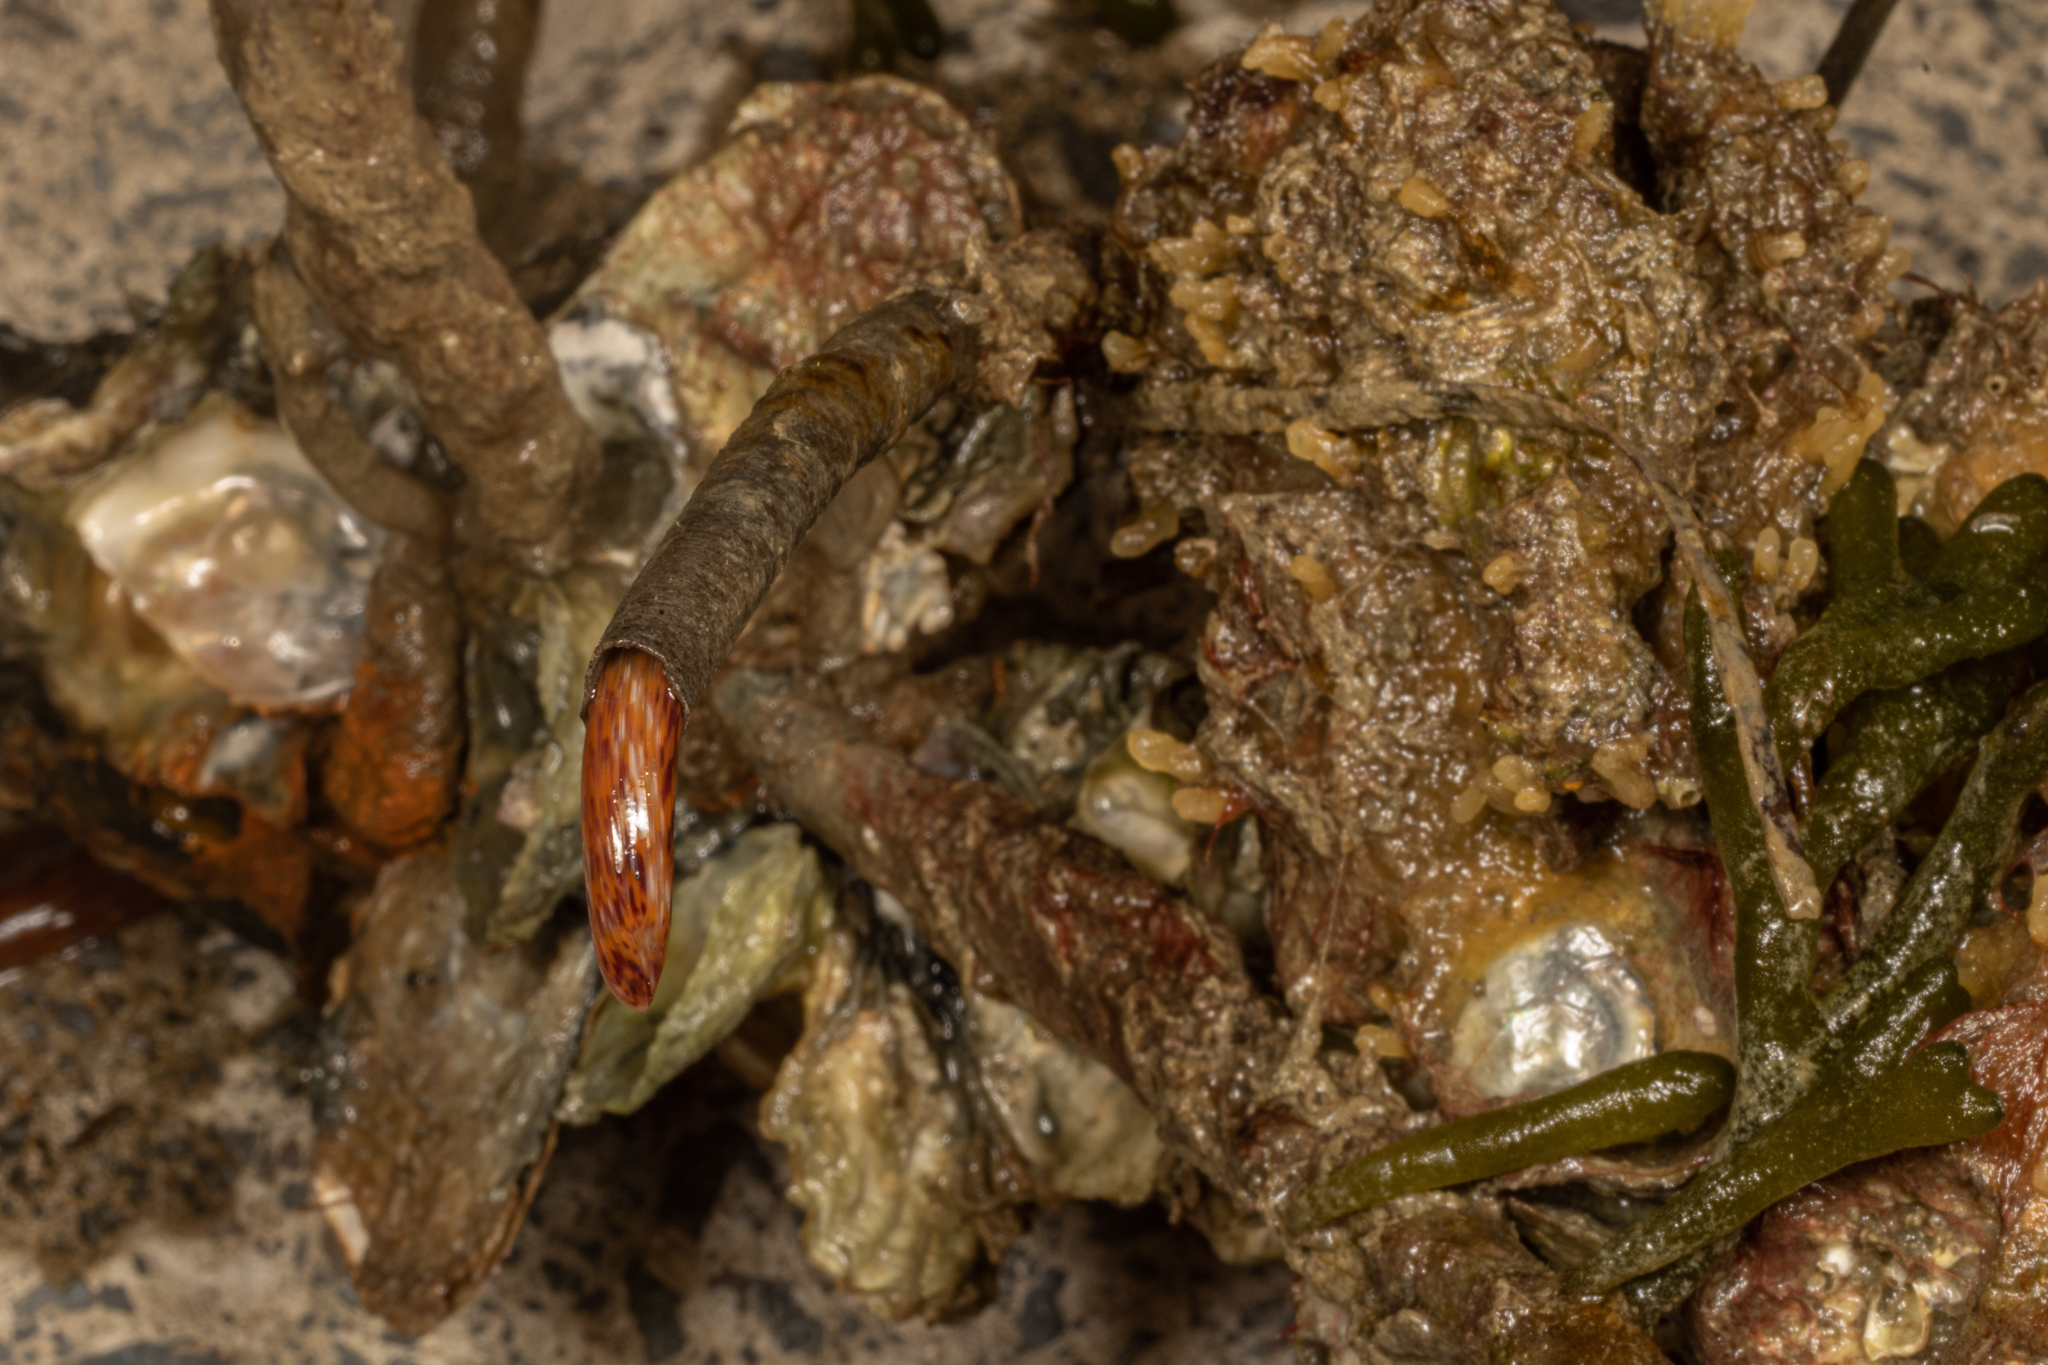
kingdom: Animalia
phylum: Annelida
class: Polychaeta
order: Sabellida
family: Sabellidae
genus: Sabella
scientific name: Sabella spallanzanii
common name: Feather duster worm
